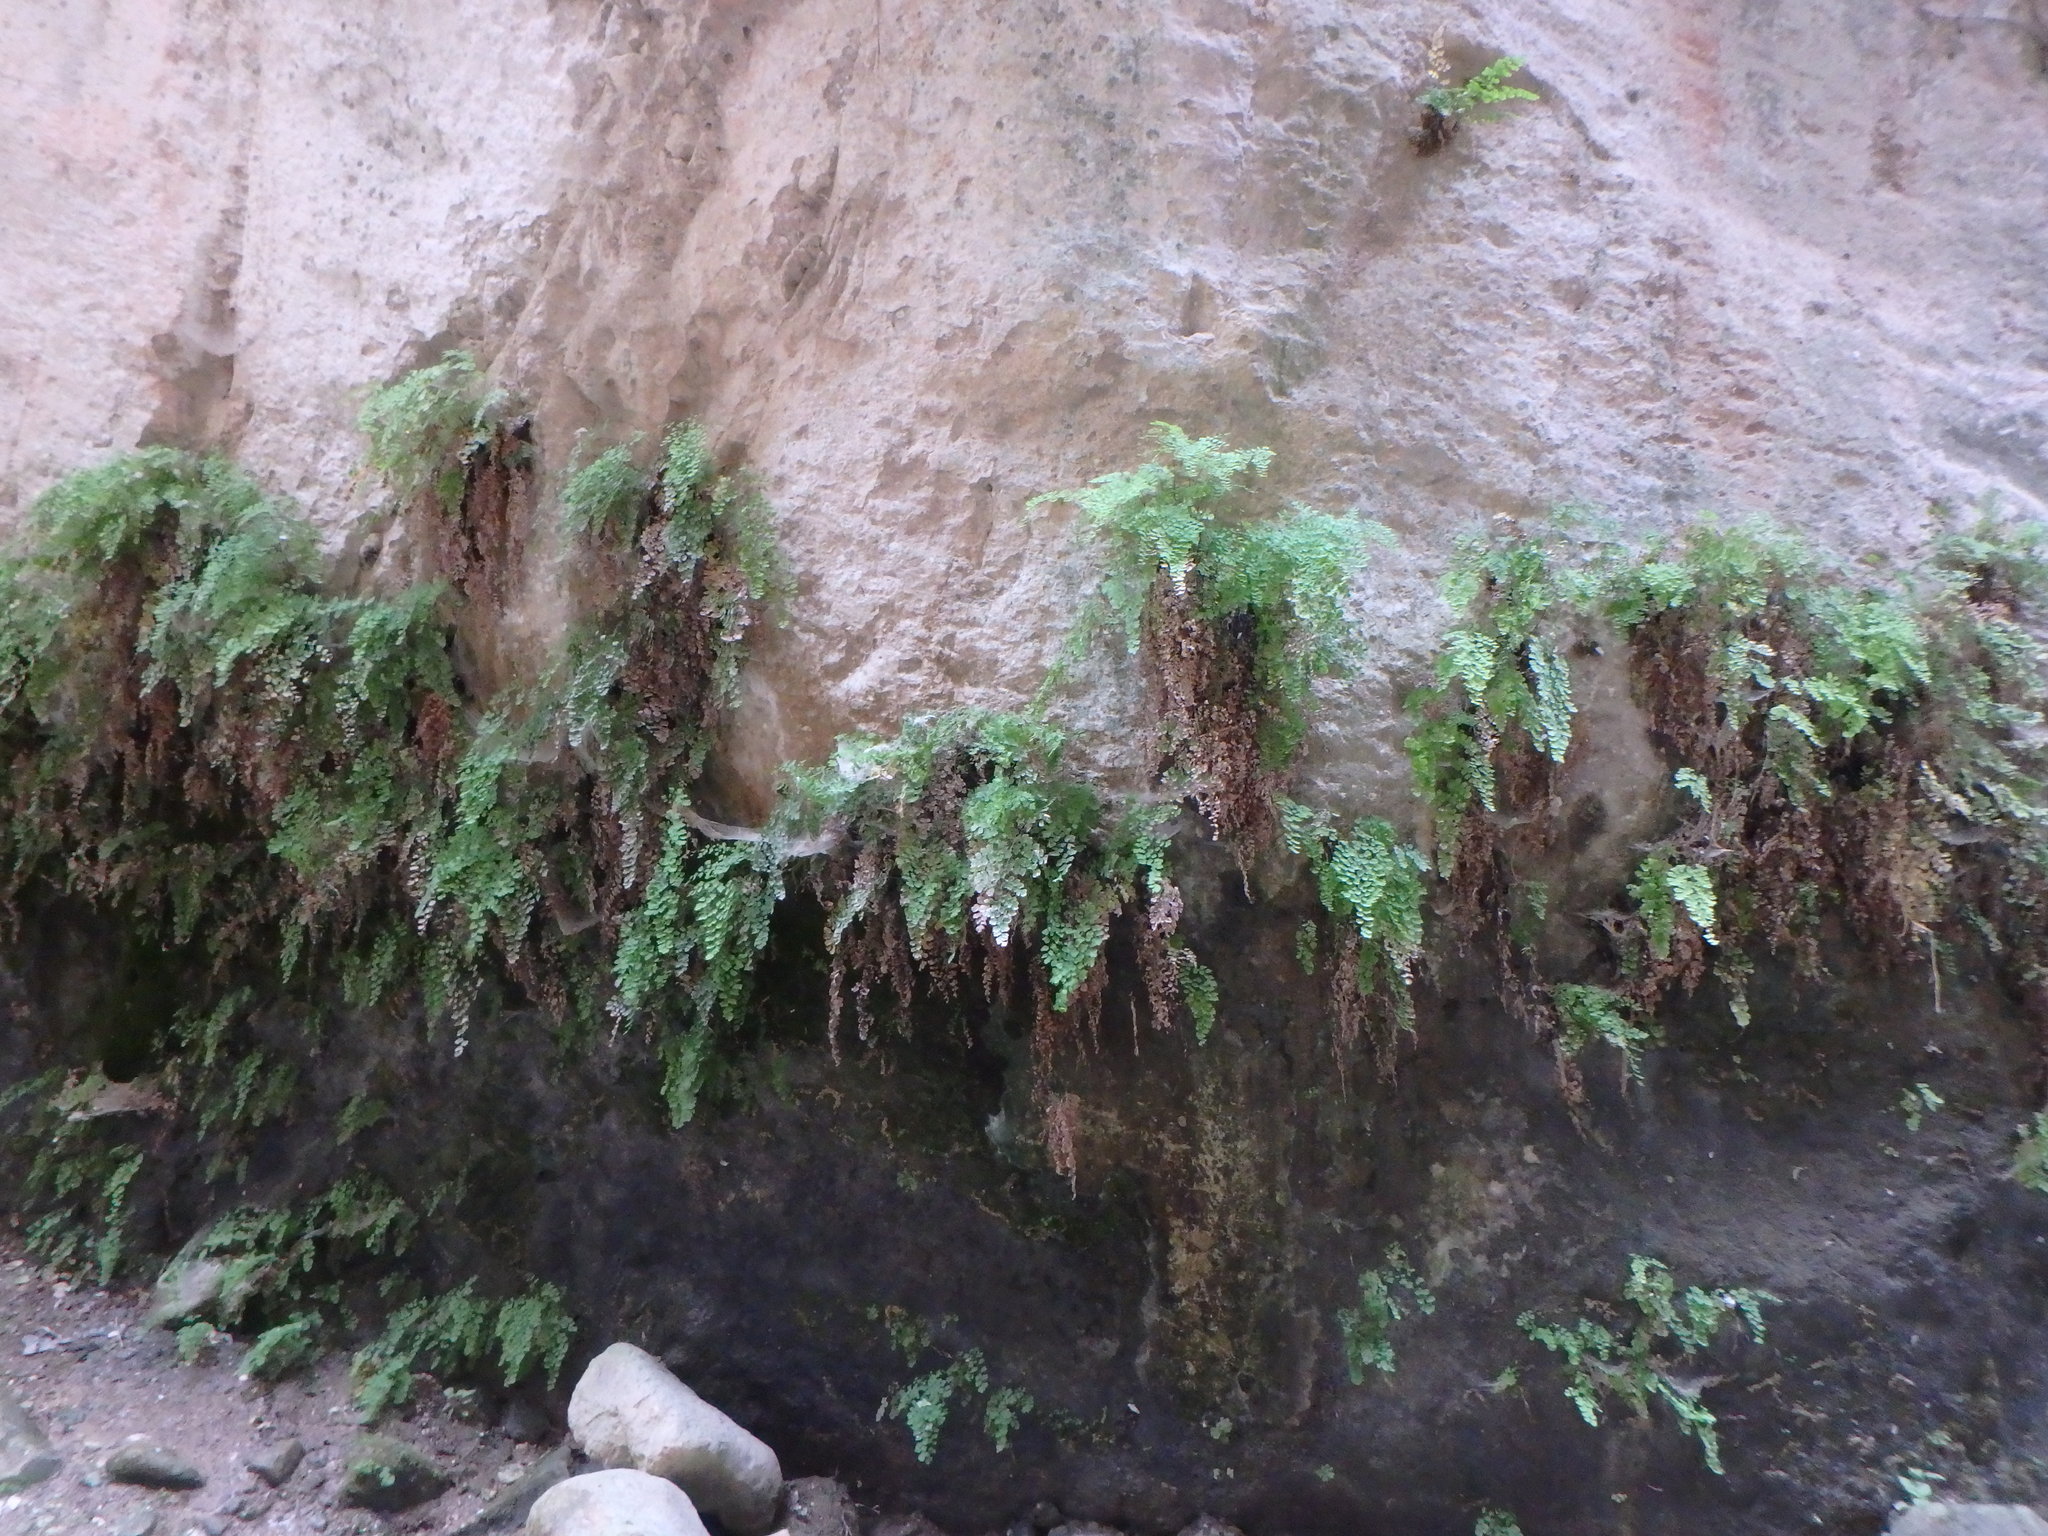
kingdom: Plantae
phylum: Tracheophyta
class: Polypodiopsida
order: Polypodiales
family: Pteridaceae
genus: Adiantum
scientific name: Adiantum capillus-veneris
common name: Maidenhair fern
